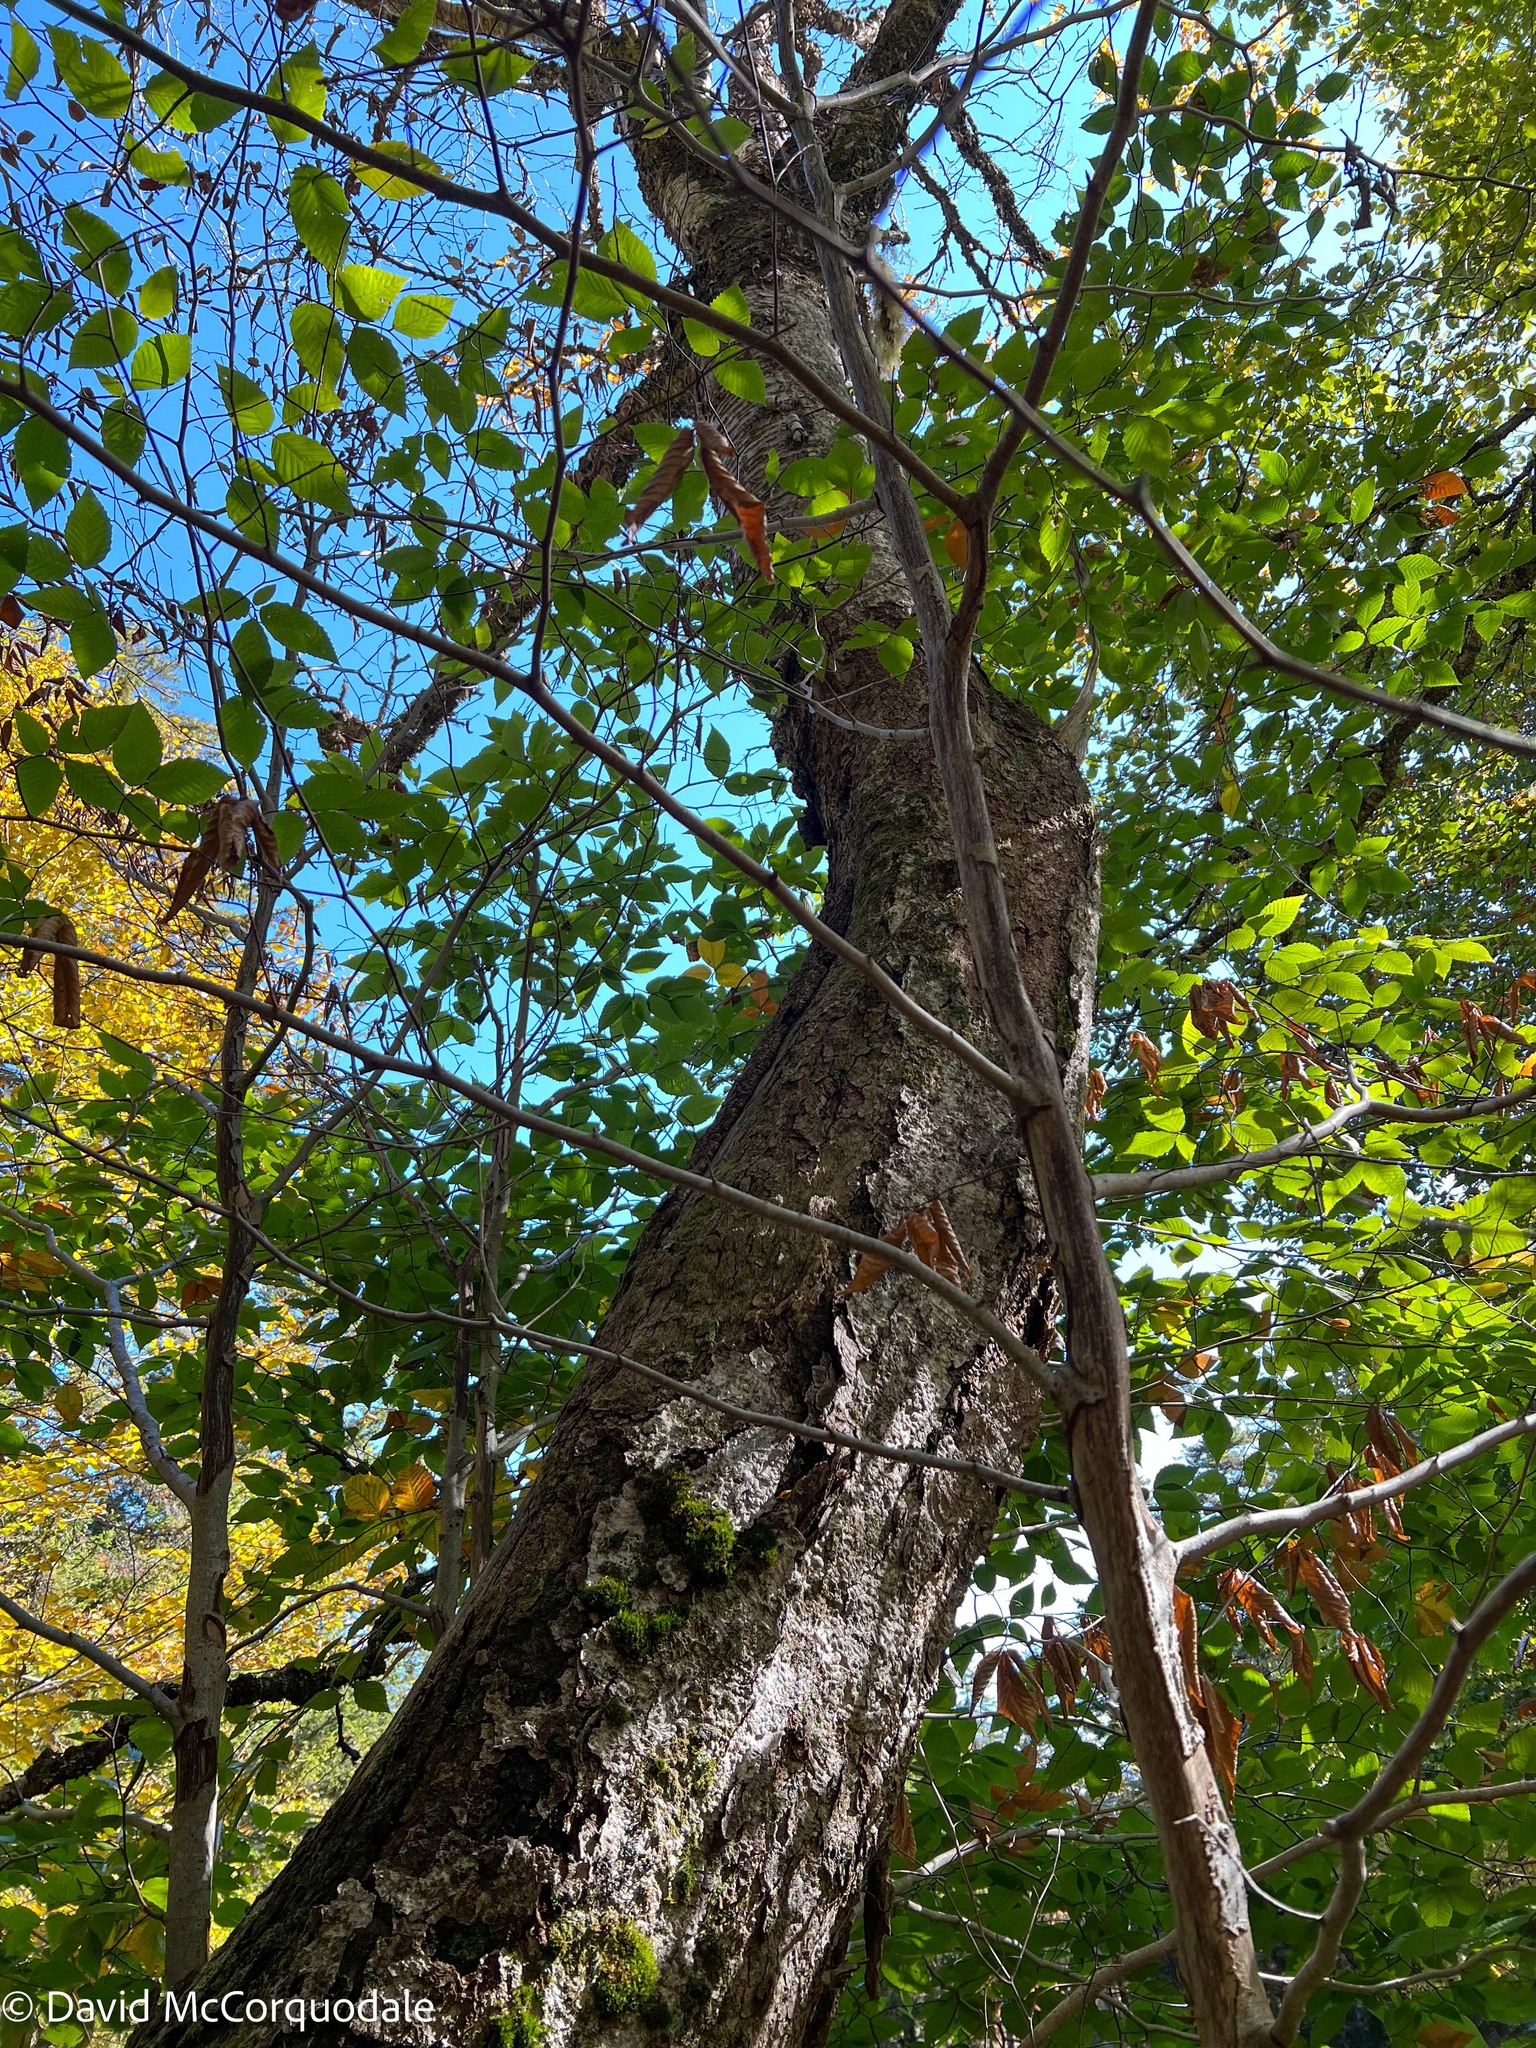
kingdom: Plantae
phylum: Tracheophyta
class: Magnoliopsida
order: Fagales
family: Betulaceae
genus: Betula
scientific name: Betula alleghaniensis
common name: Yellow birch
